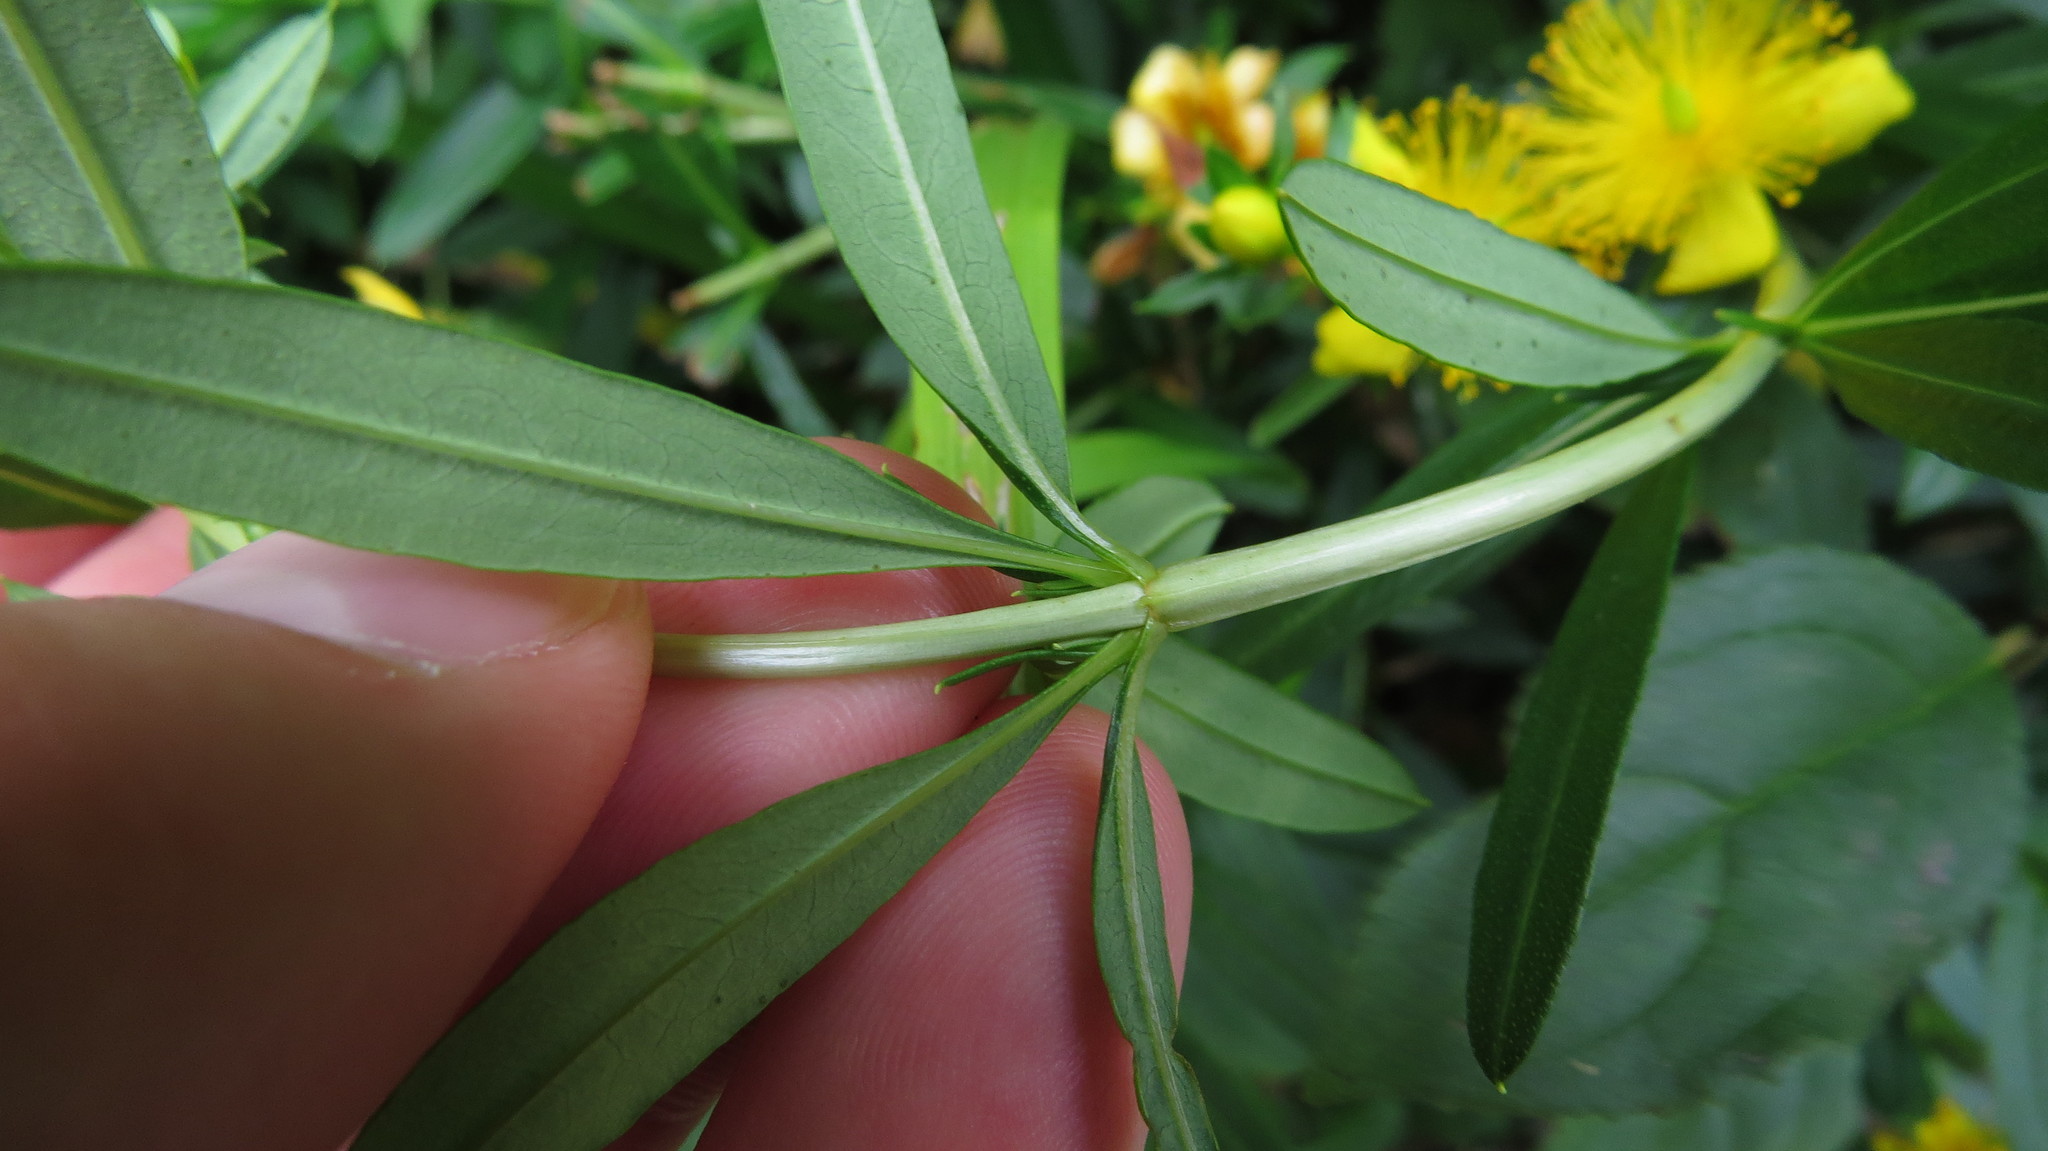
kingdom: Plantae
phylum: Tracheophyta
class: Magnoliopsida
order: Malpighiales
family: Hypericaceae
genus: Hypericum
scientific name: Hypericum prolificum
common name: Shrubby st. john's-wort
